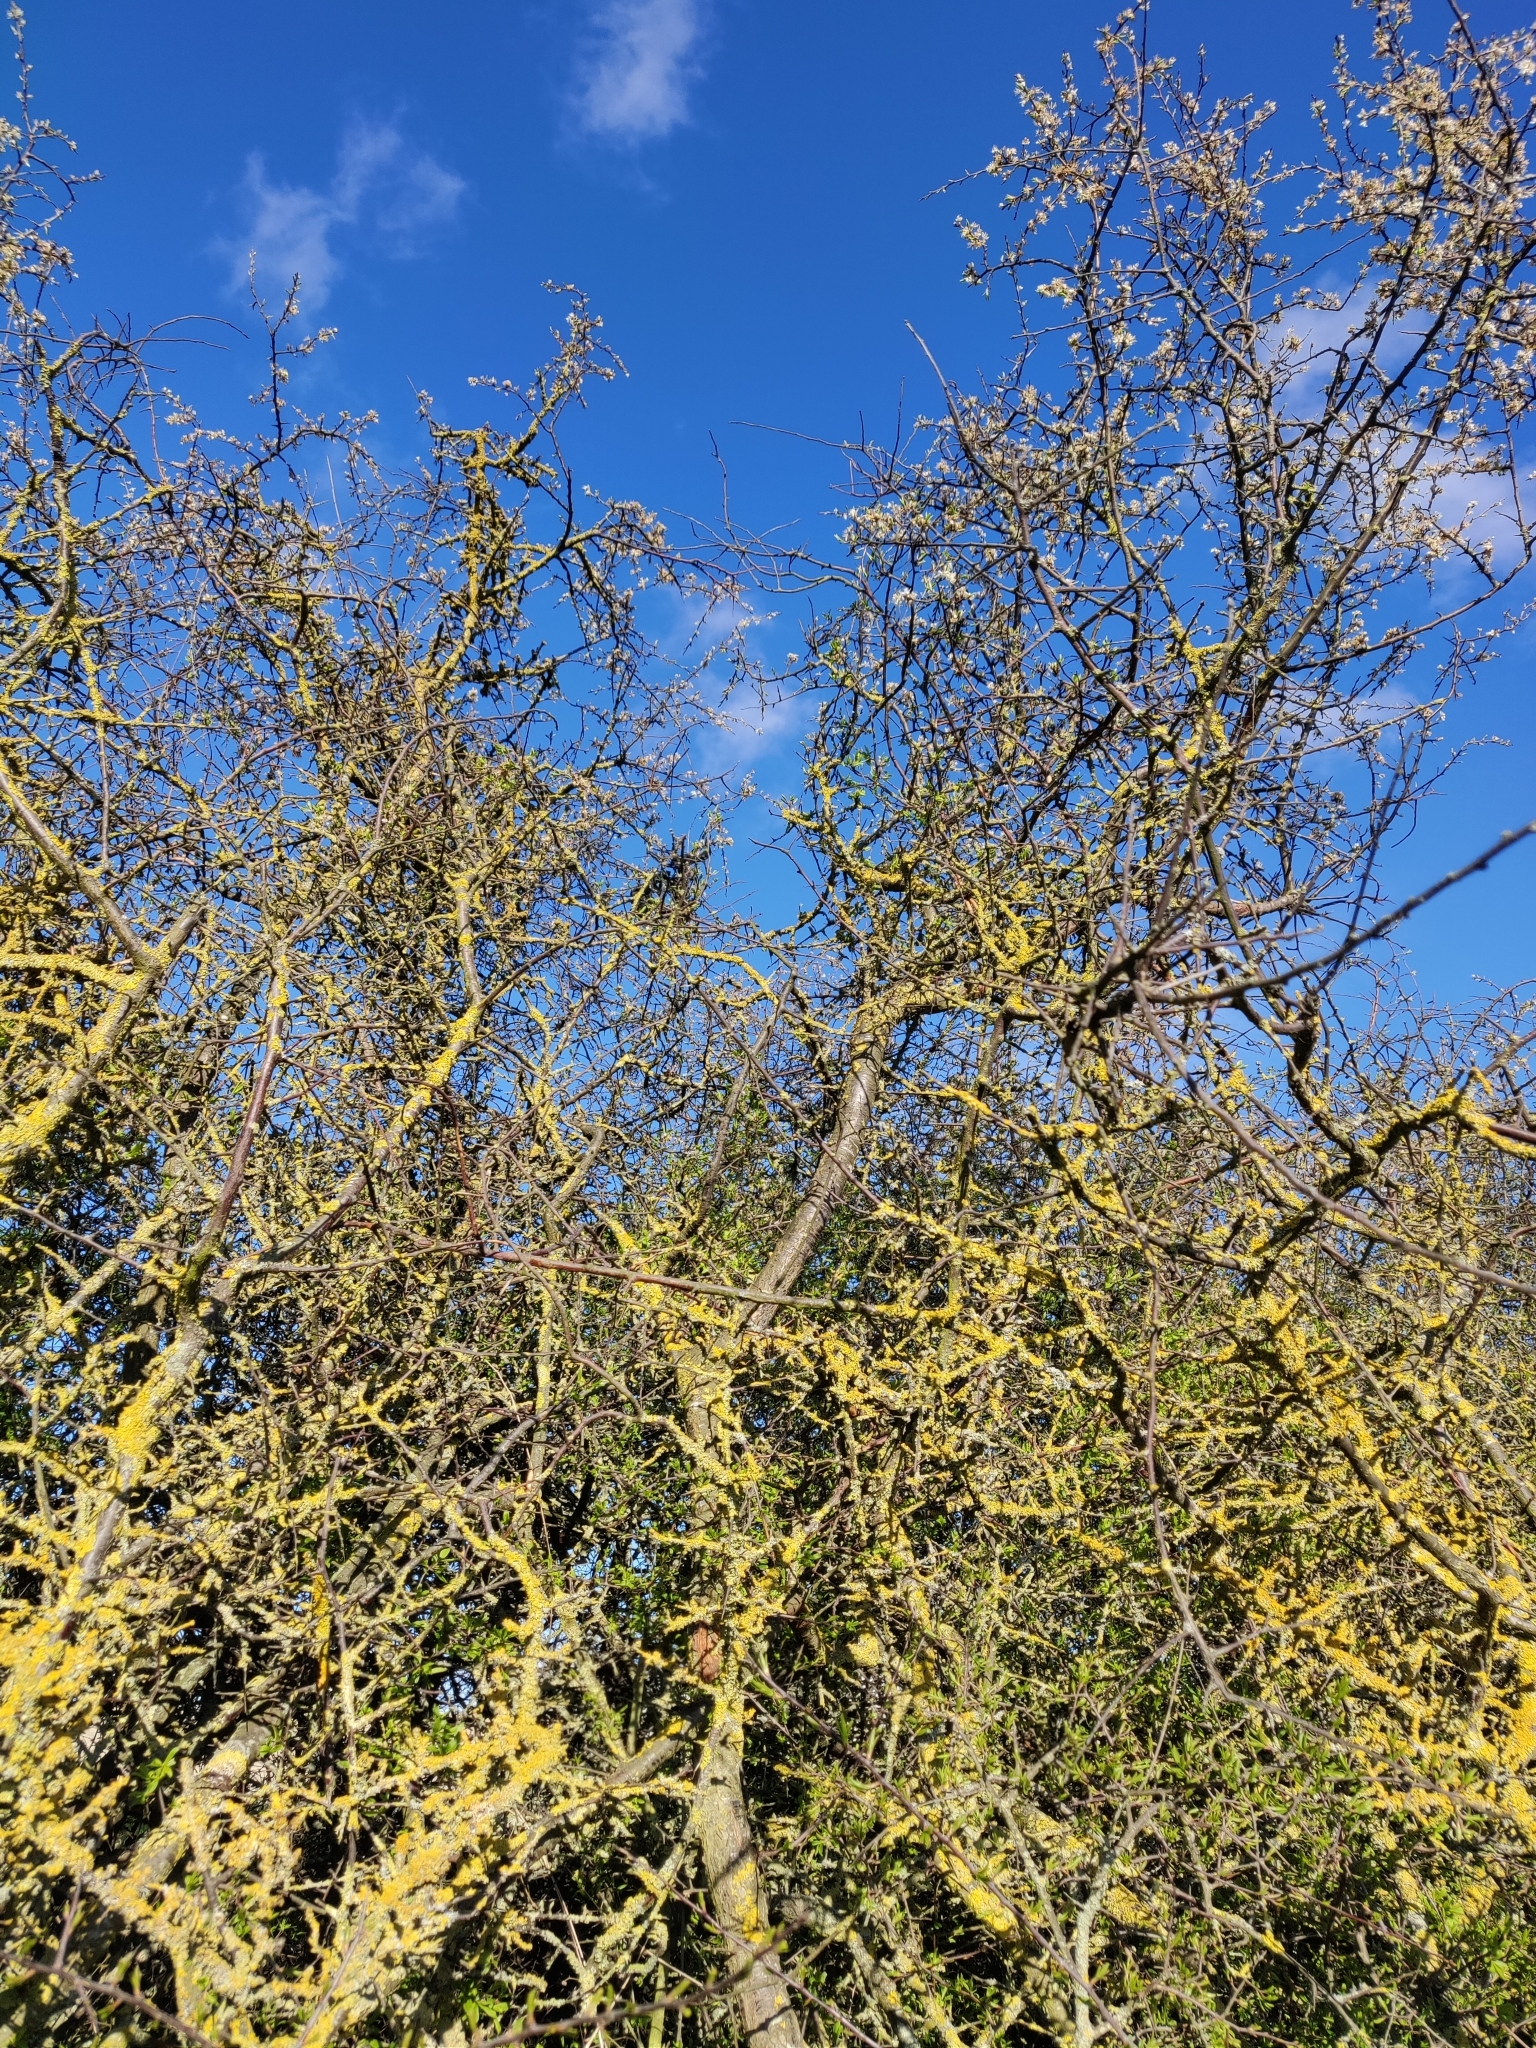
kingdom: Plantae
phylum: Tracheophyta
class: Magnoliopsida
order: Rosales
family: Rosaceae
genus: Prunus
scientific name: Prunus spinosa
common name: Blackthorn
